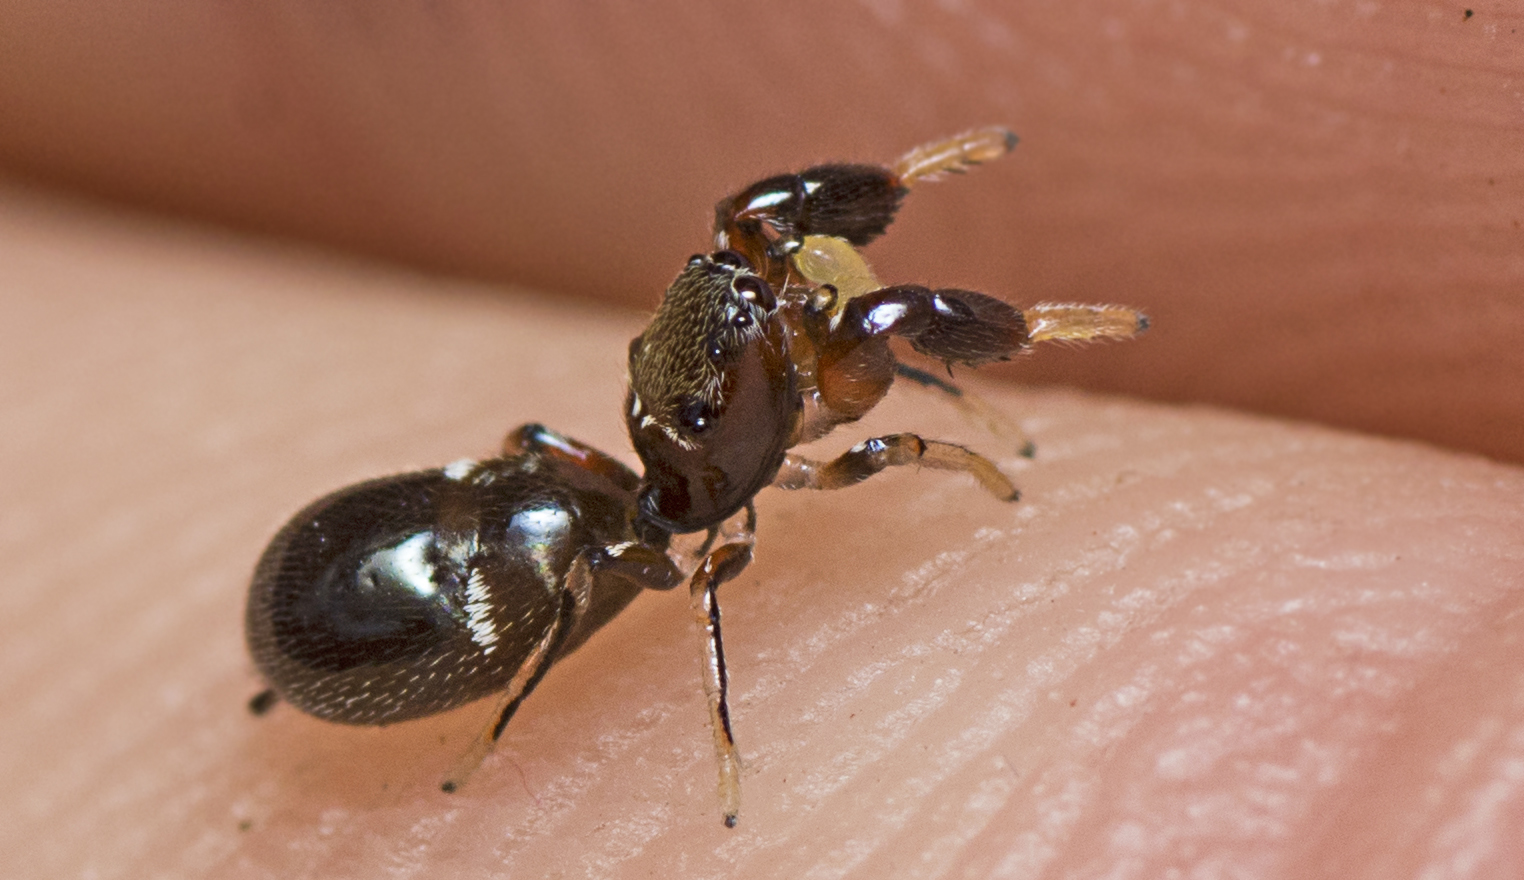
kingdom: Animalia
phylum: Arthropoda
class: Arachnida
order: Araneae
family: Salticidae
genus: Rhombonotus
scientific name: Rhombonotus gracilis
